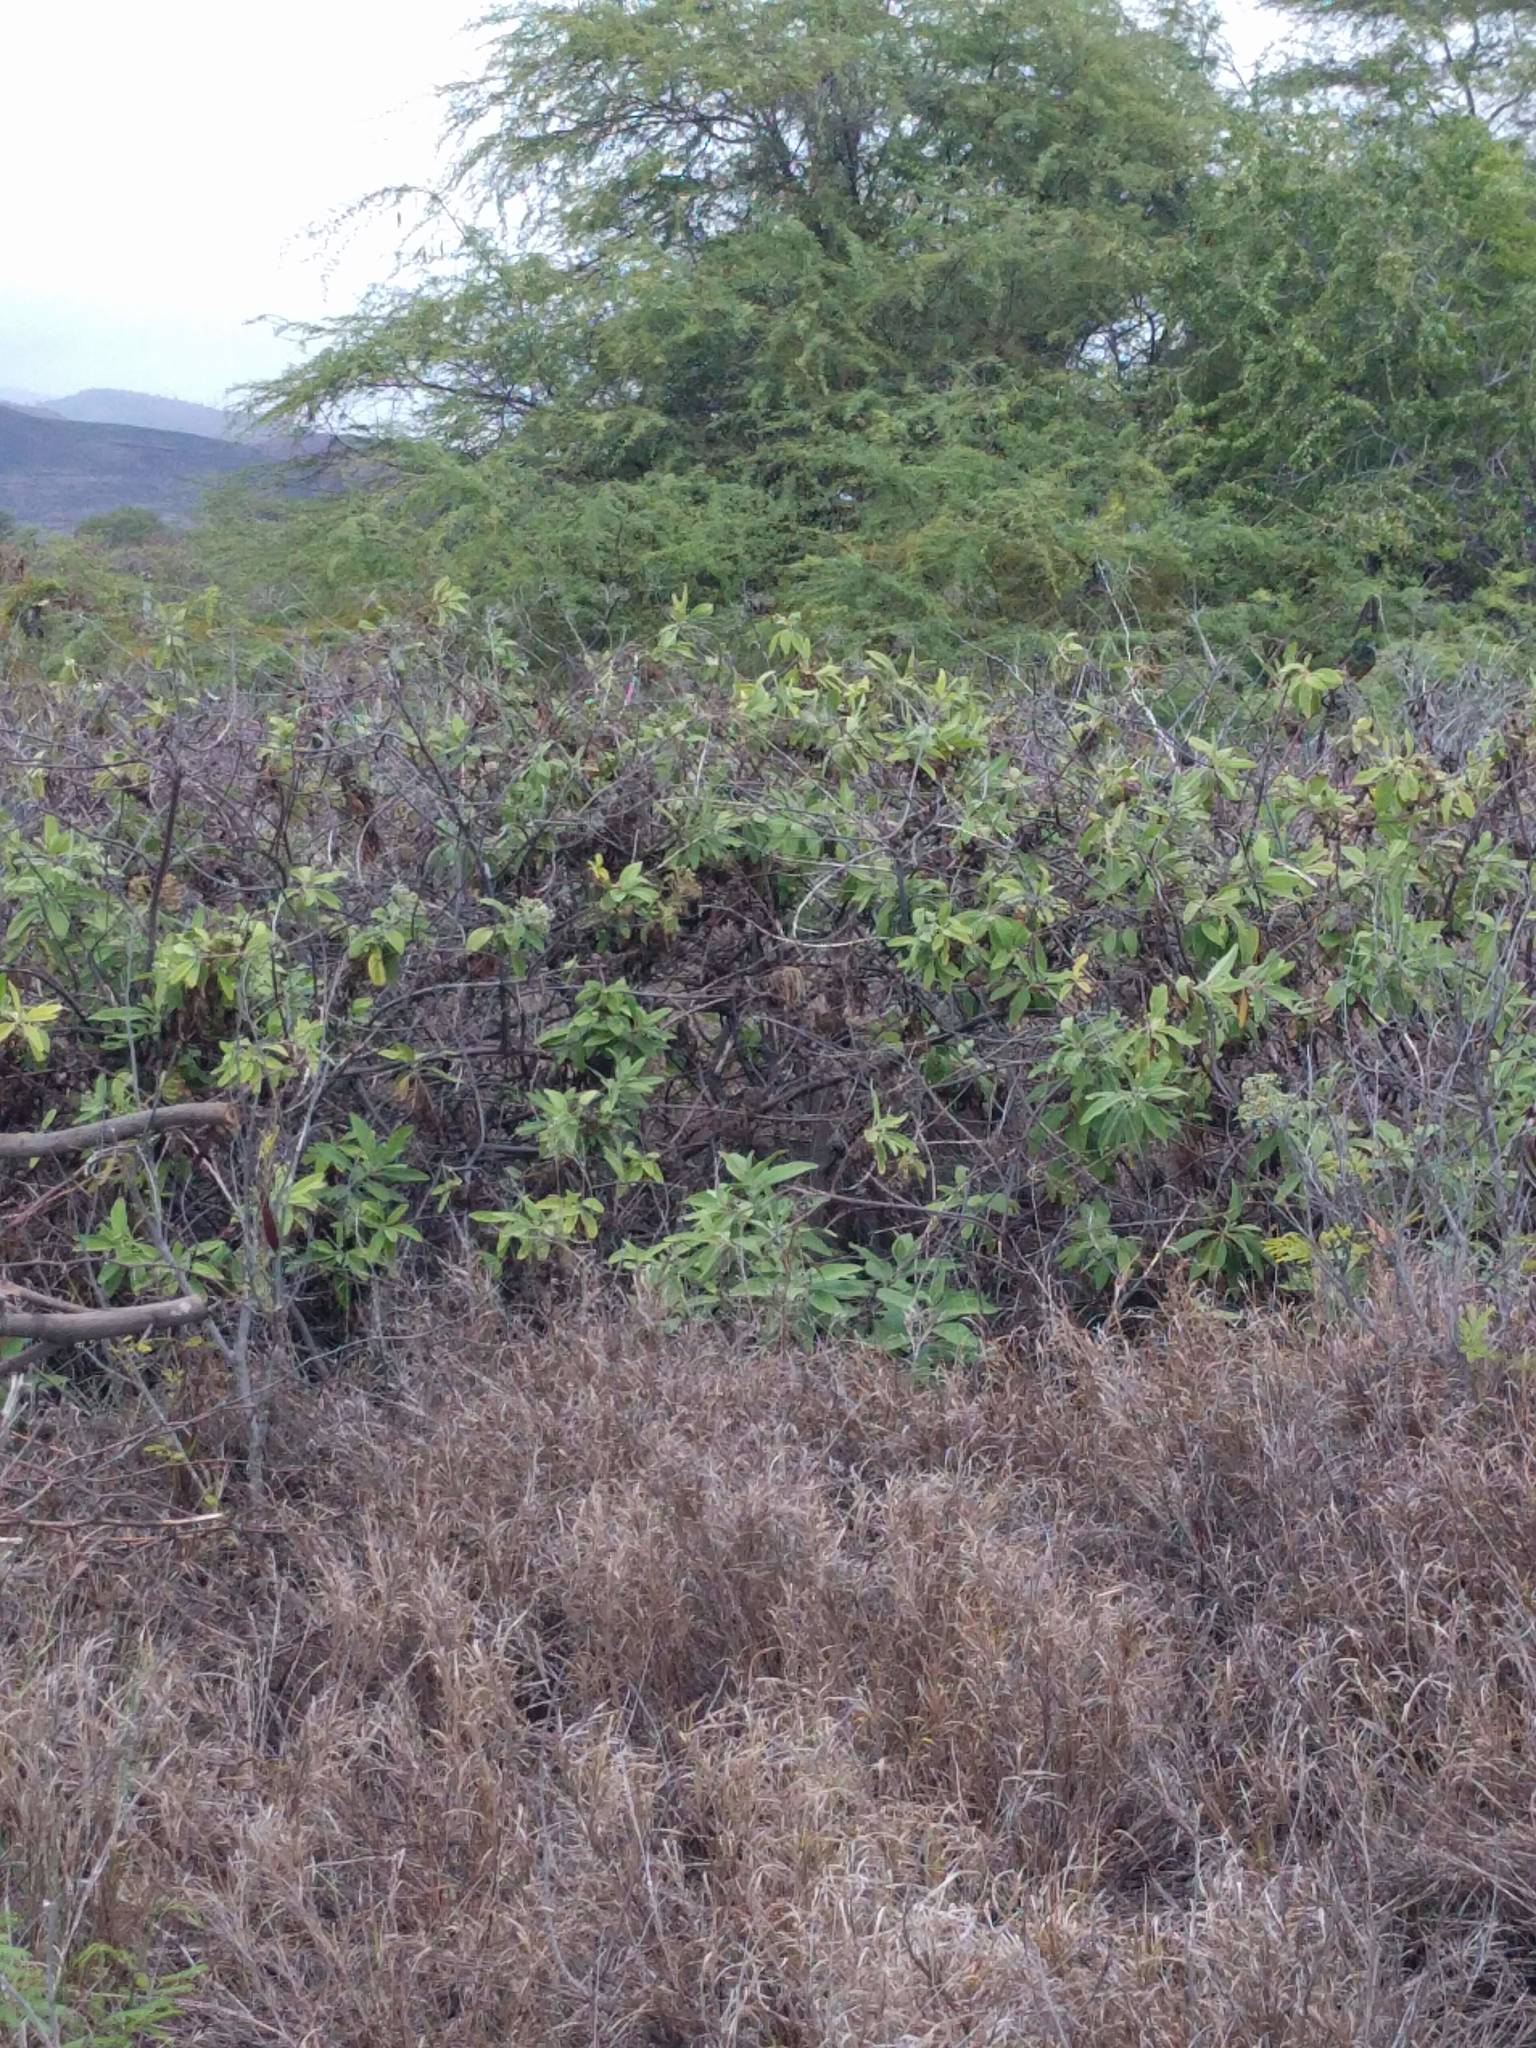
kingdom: Plantae
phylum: Tracheophyta
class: Magnoliopsida
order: Asterales
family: Asteraceae
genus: Pluchea
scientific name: Pluchea carolinensis
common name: Marsh fleabane
